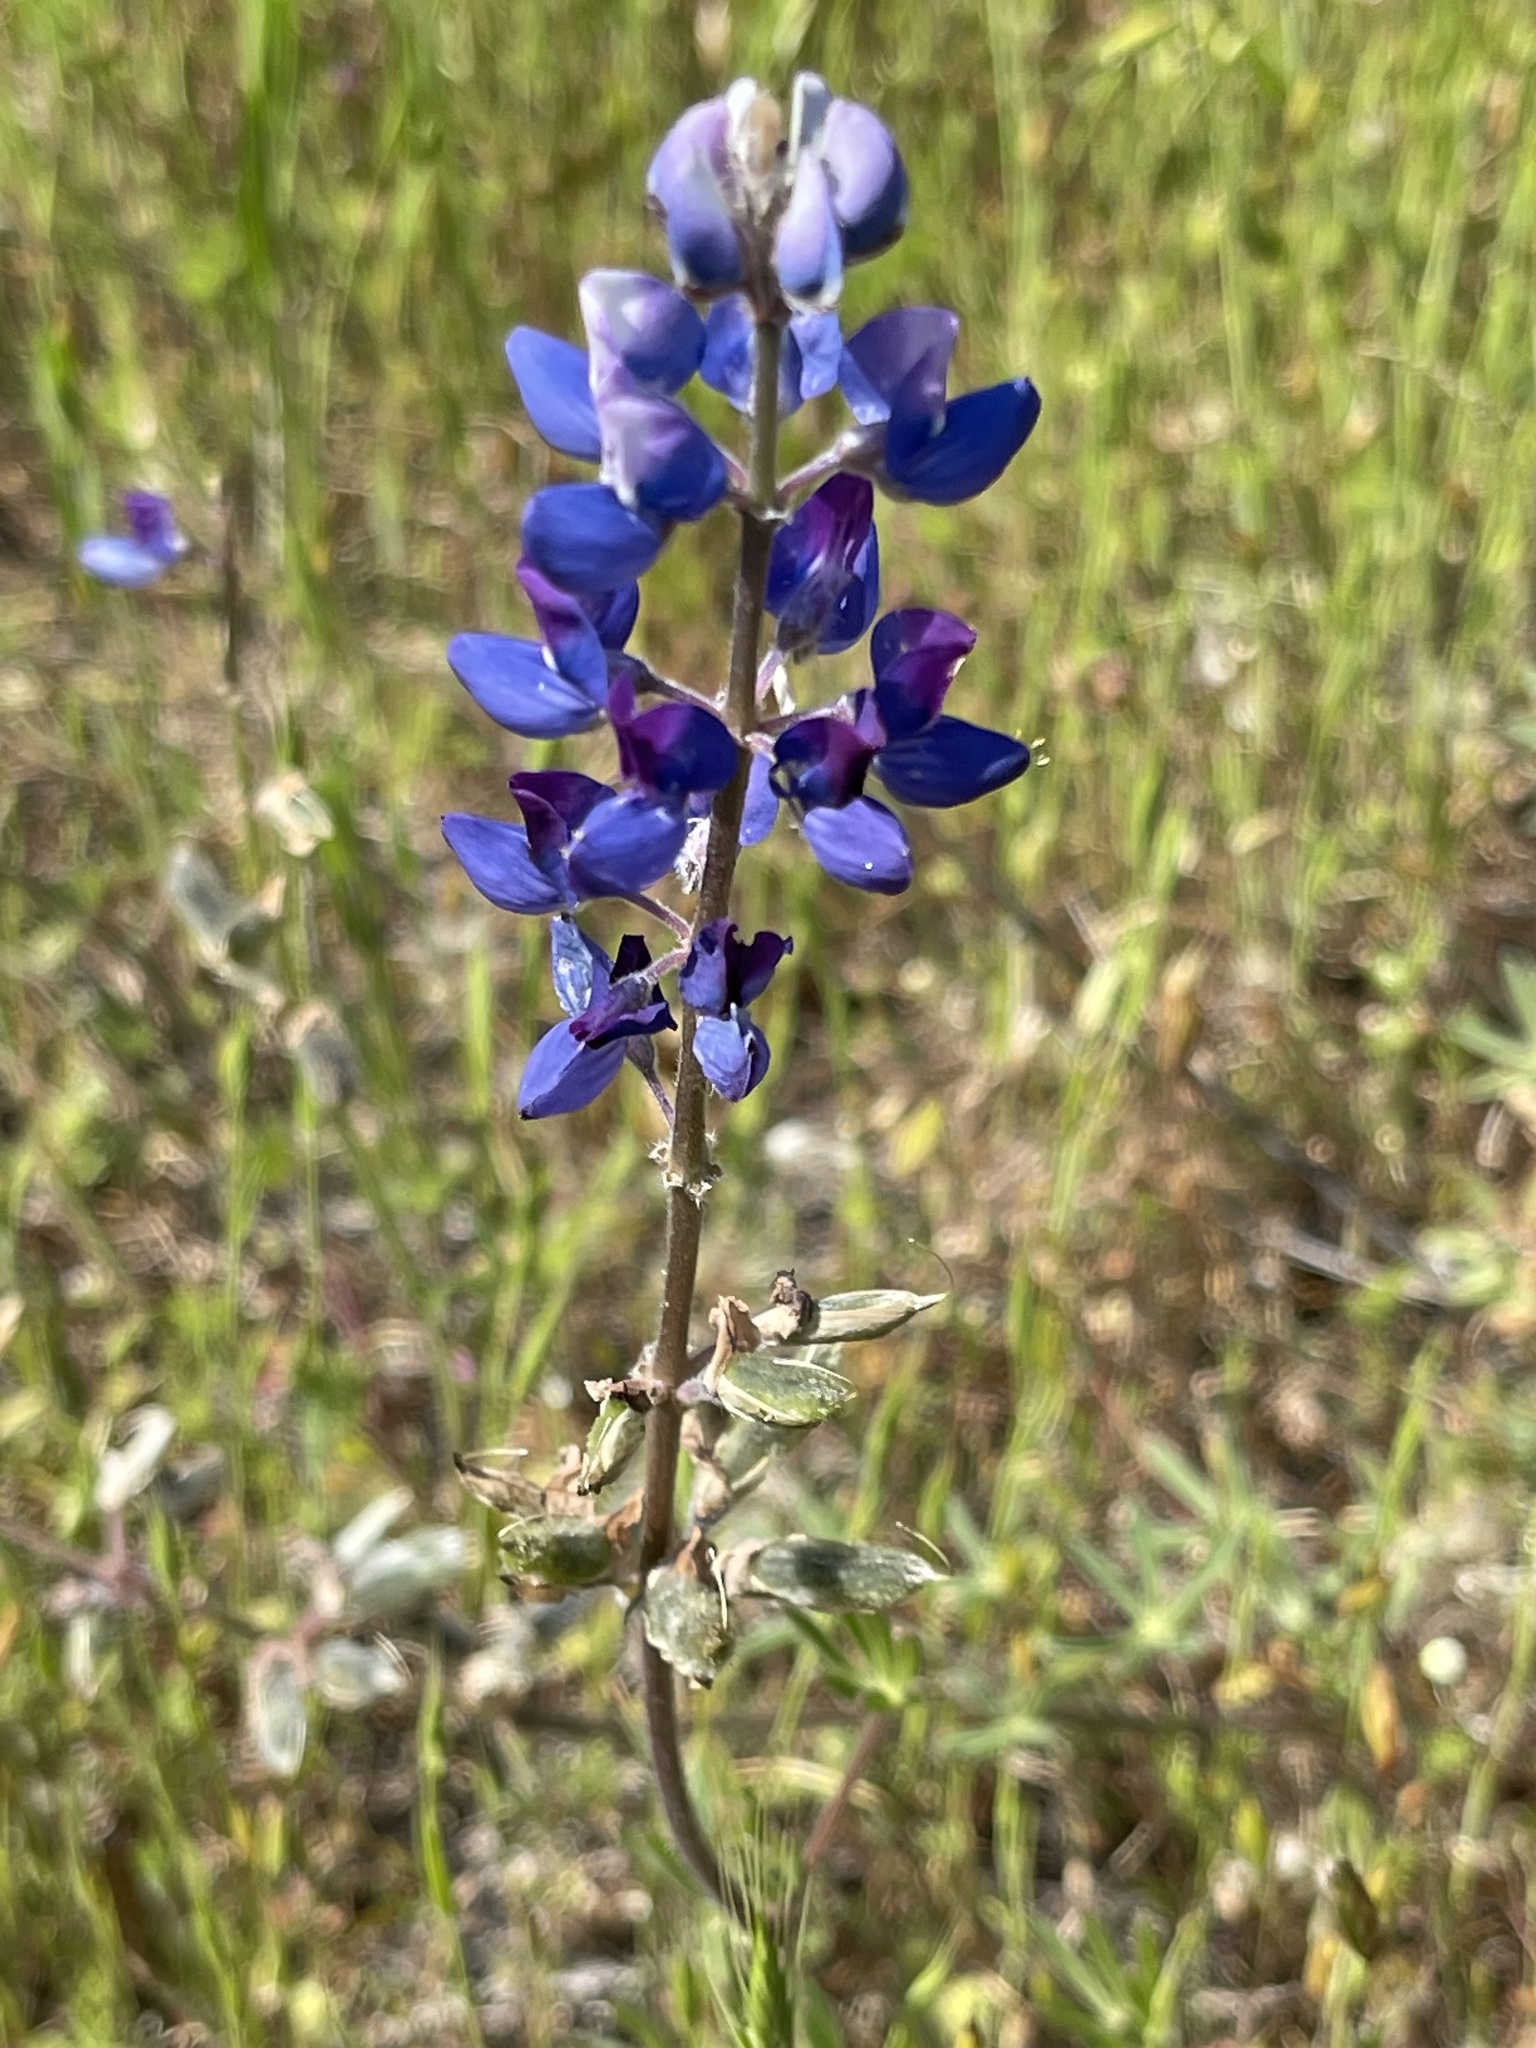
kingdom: Plantae
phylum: Tracheophyta
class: Magnoliopsida
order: Fabales
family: Fabaceae
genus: Lupinus
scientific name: Lupinus nanus
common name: Orean blue lupin
